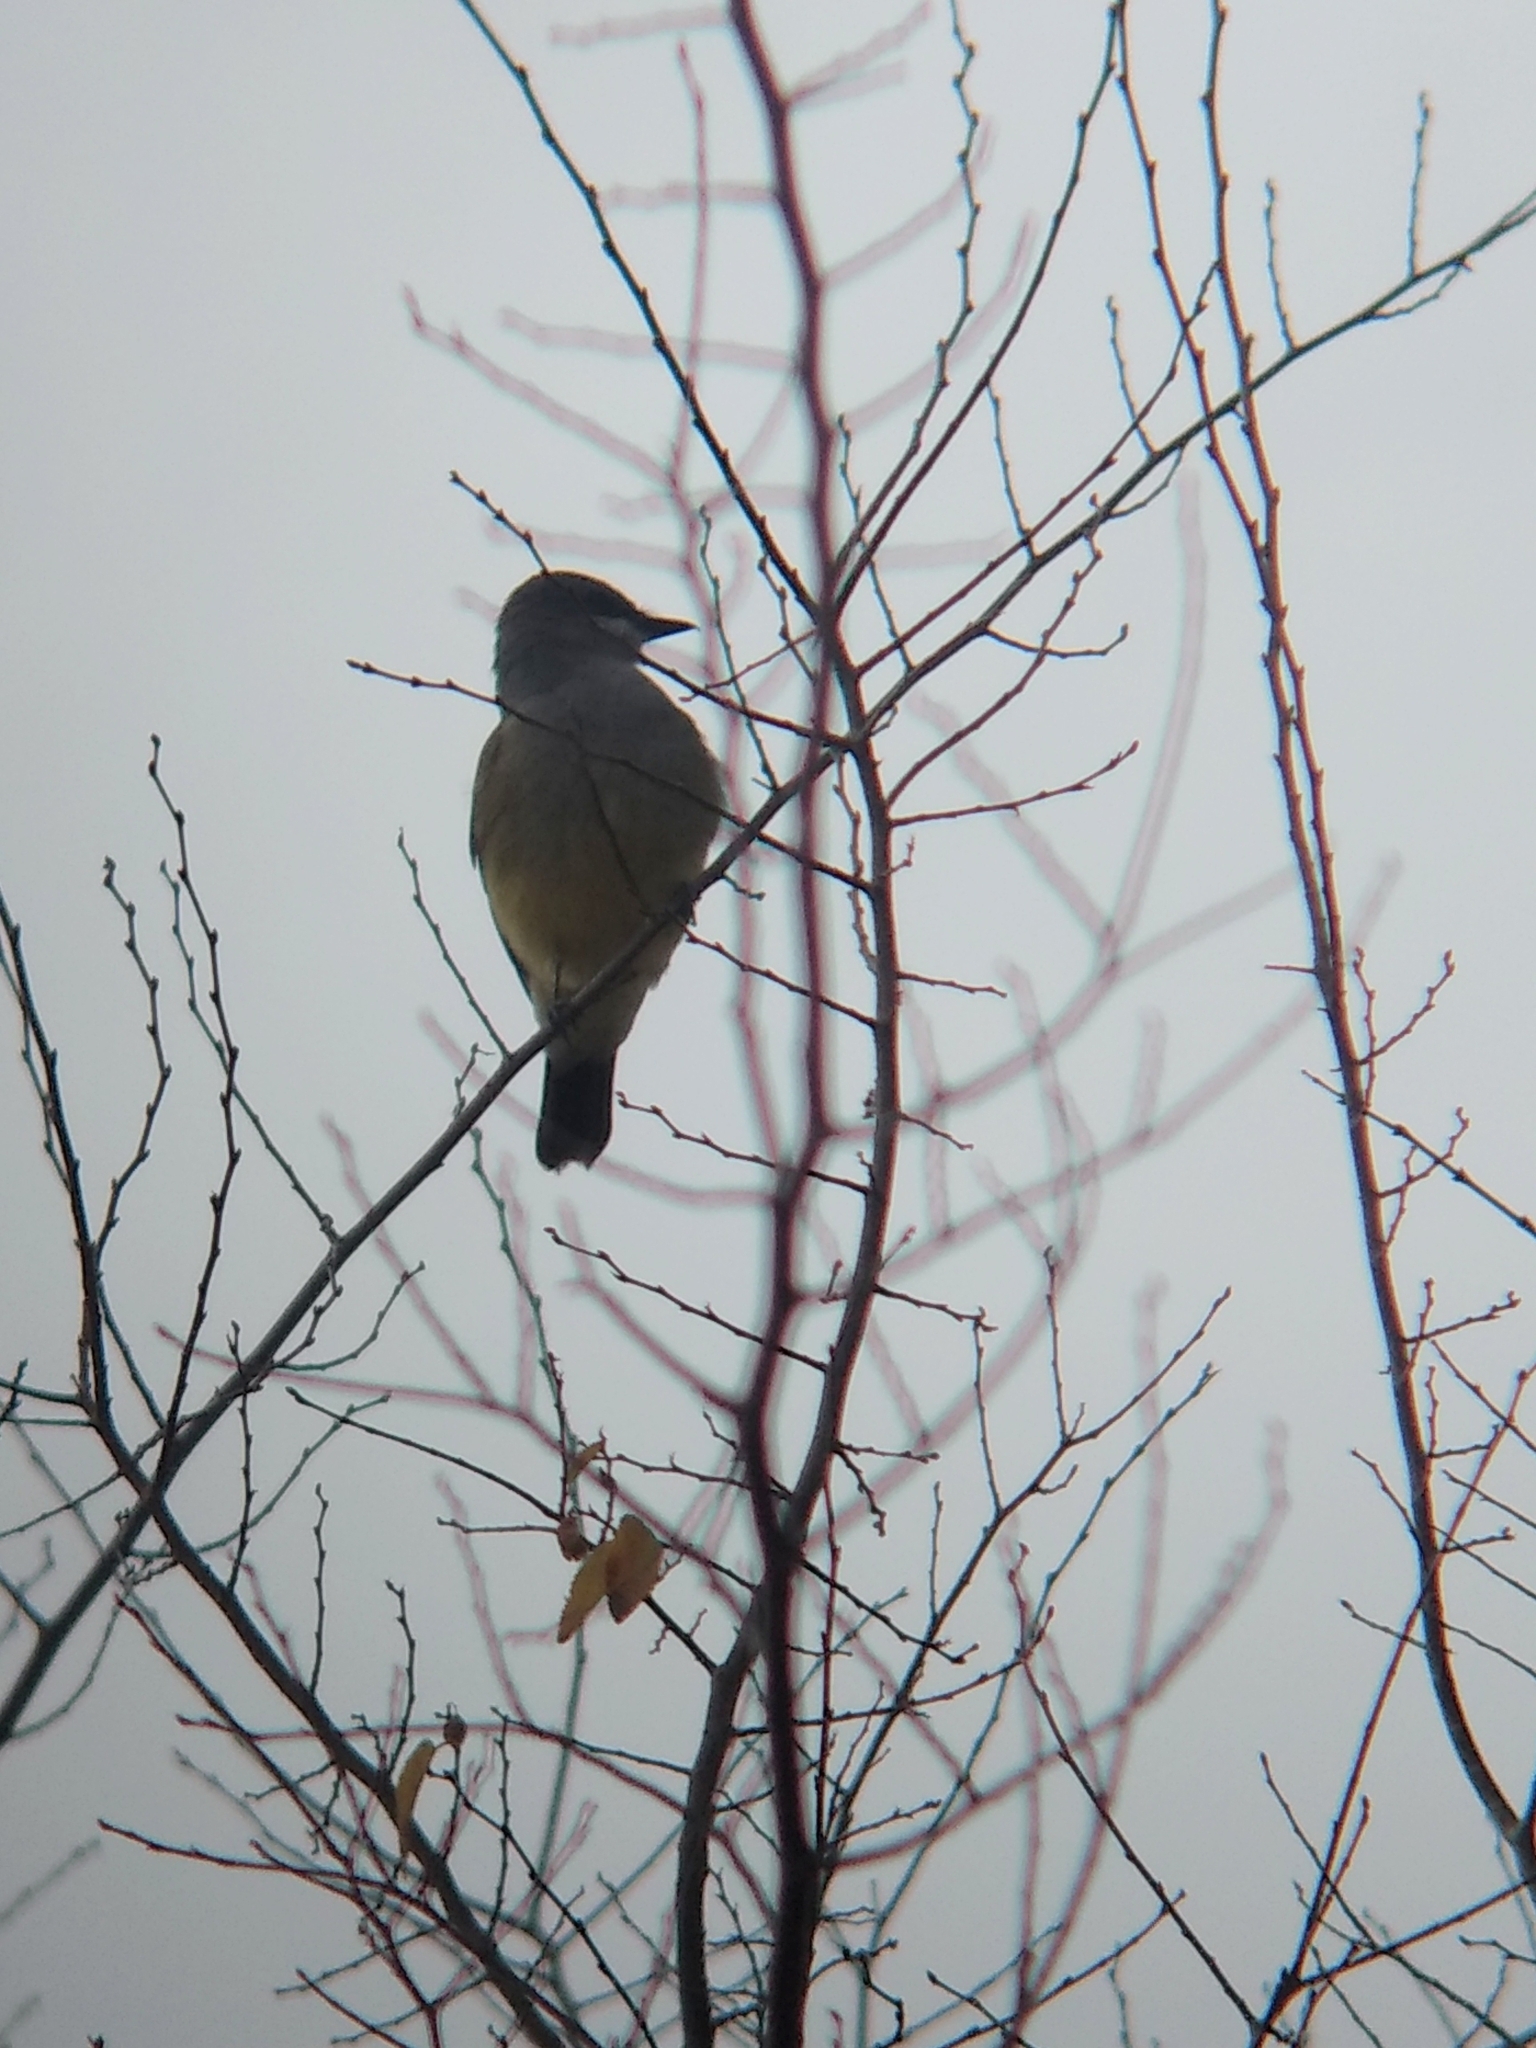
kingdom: Animalia
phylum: Chordata
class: Aves
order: Passeriformes
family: Tyrannidae
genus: Tyrannus
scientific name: Tyrannus vociferans
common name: Cassin's kingbird
